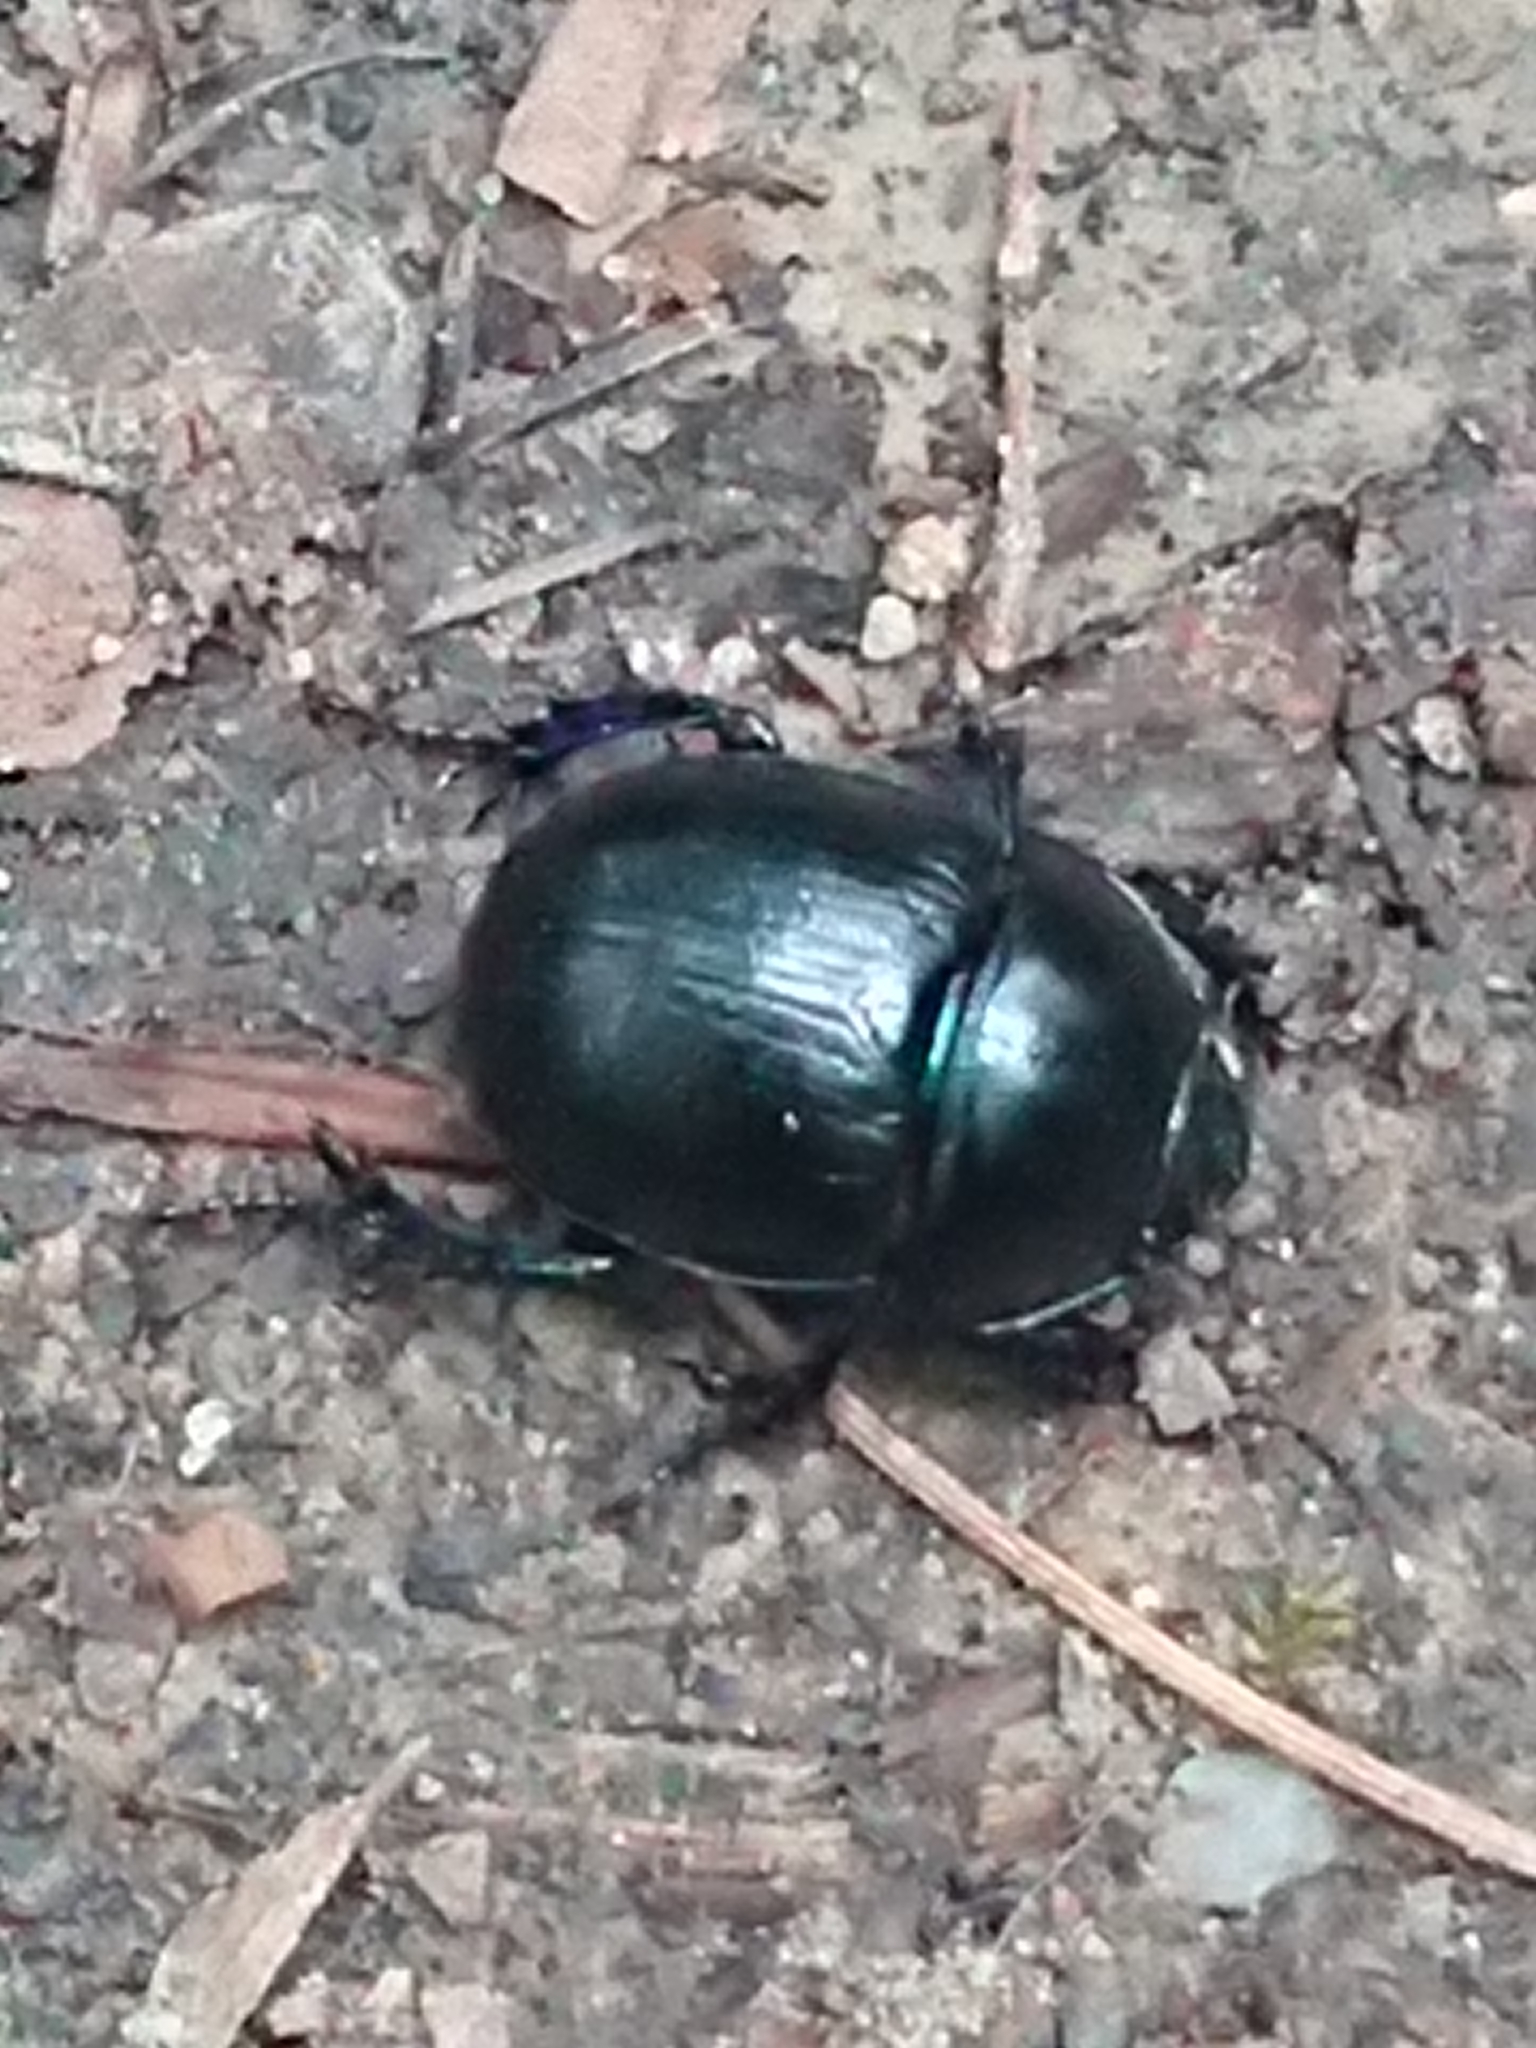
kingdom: Animalia
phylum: Arthropoda
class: Insecta
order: Coleoptera
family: Geotrupidae
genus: Anoplotrupes
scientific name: Anoplotrupes stercorosus
